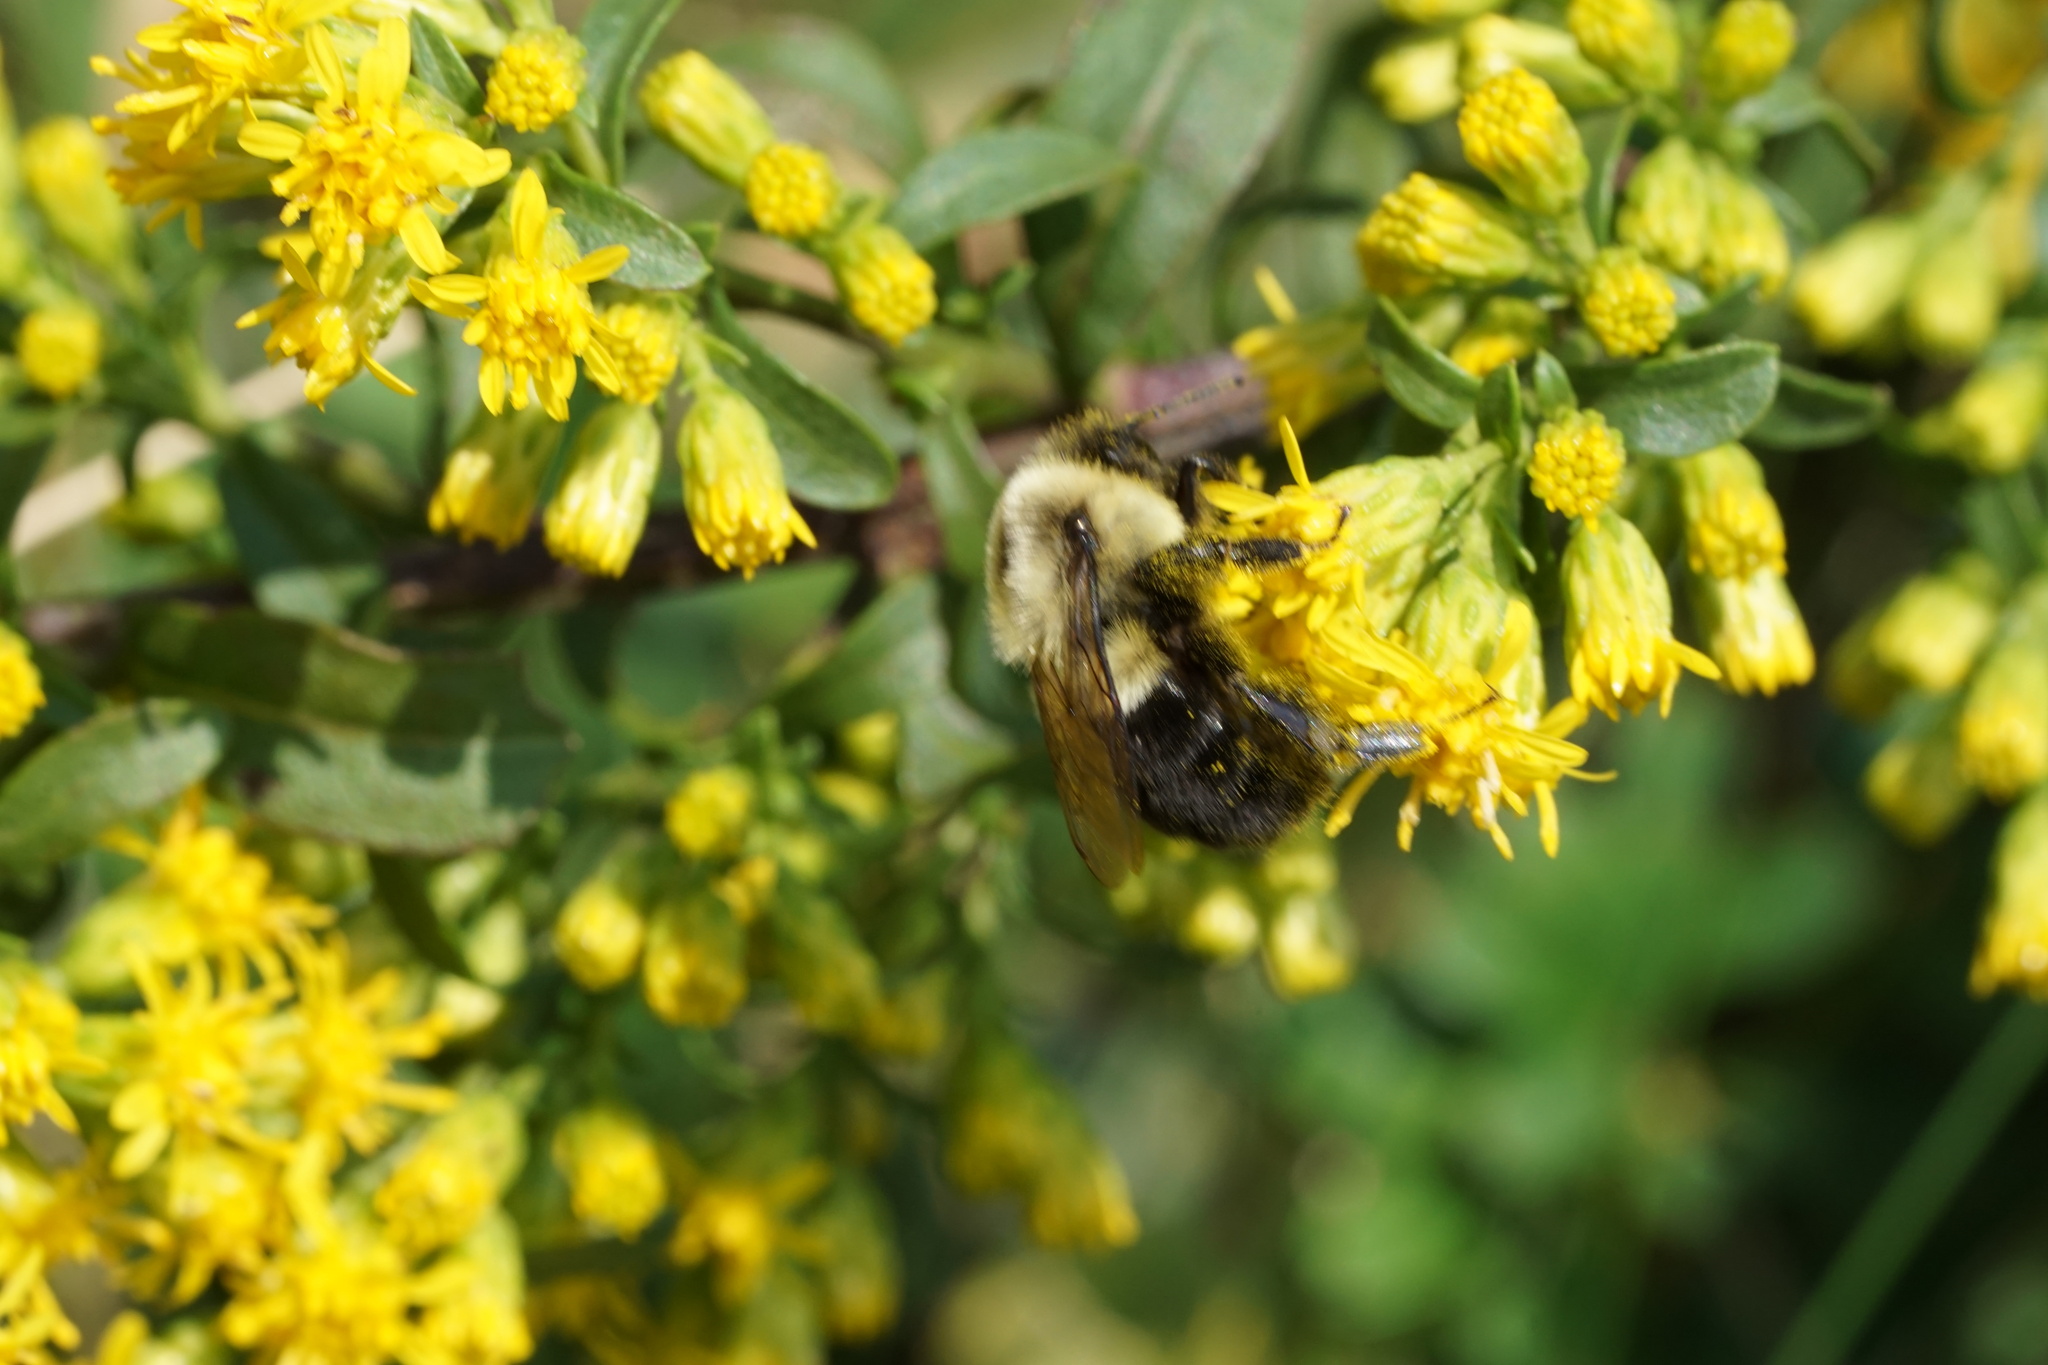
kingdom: Animalia
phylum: Arthropoda
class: Insecta
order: Hymenoptera
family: Apidae
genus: Bombus
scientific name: Bombus impatiens
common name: Common eastern bumble bee
